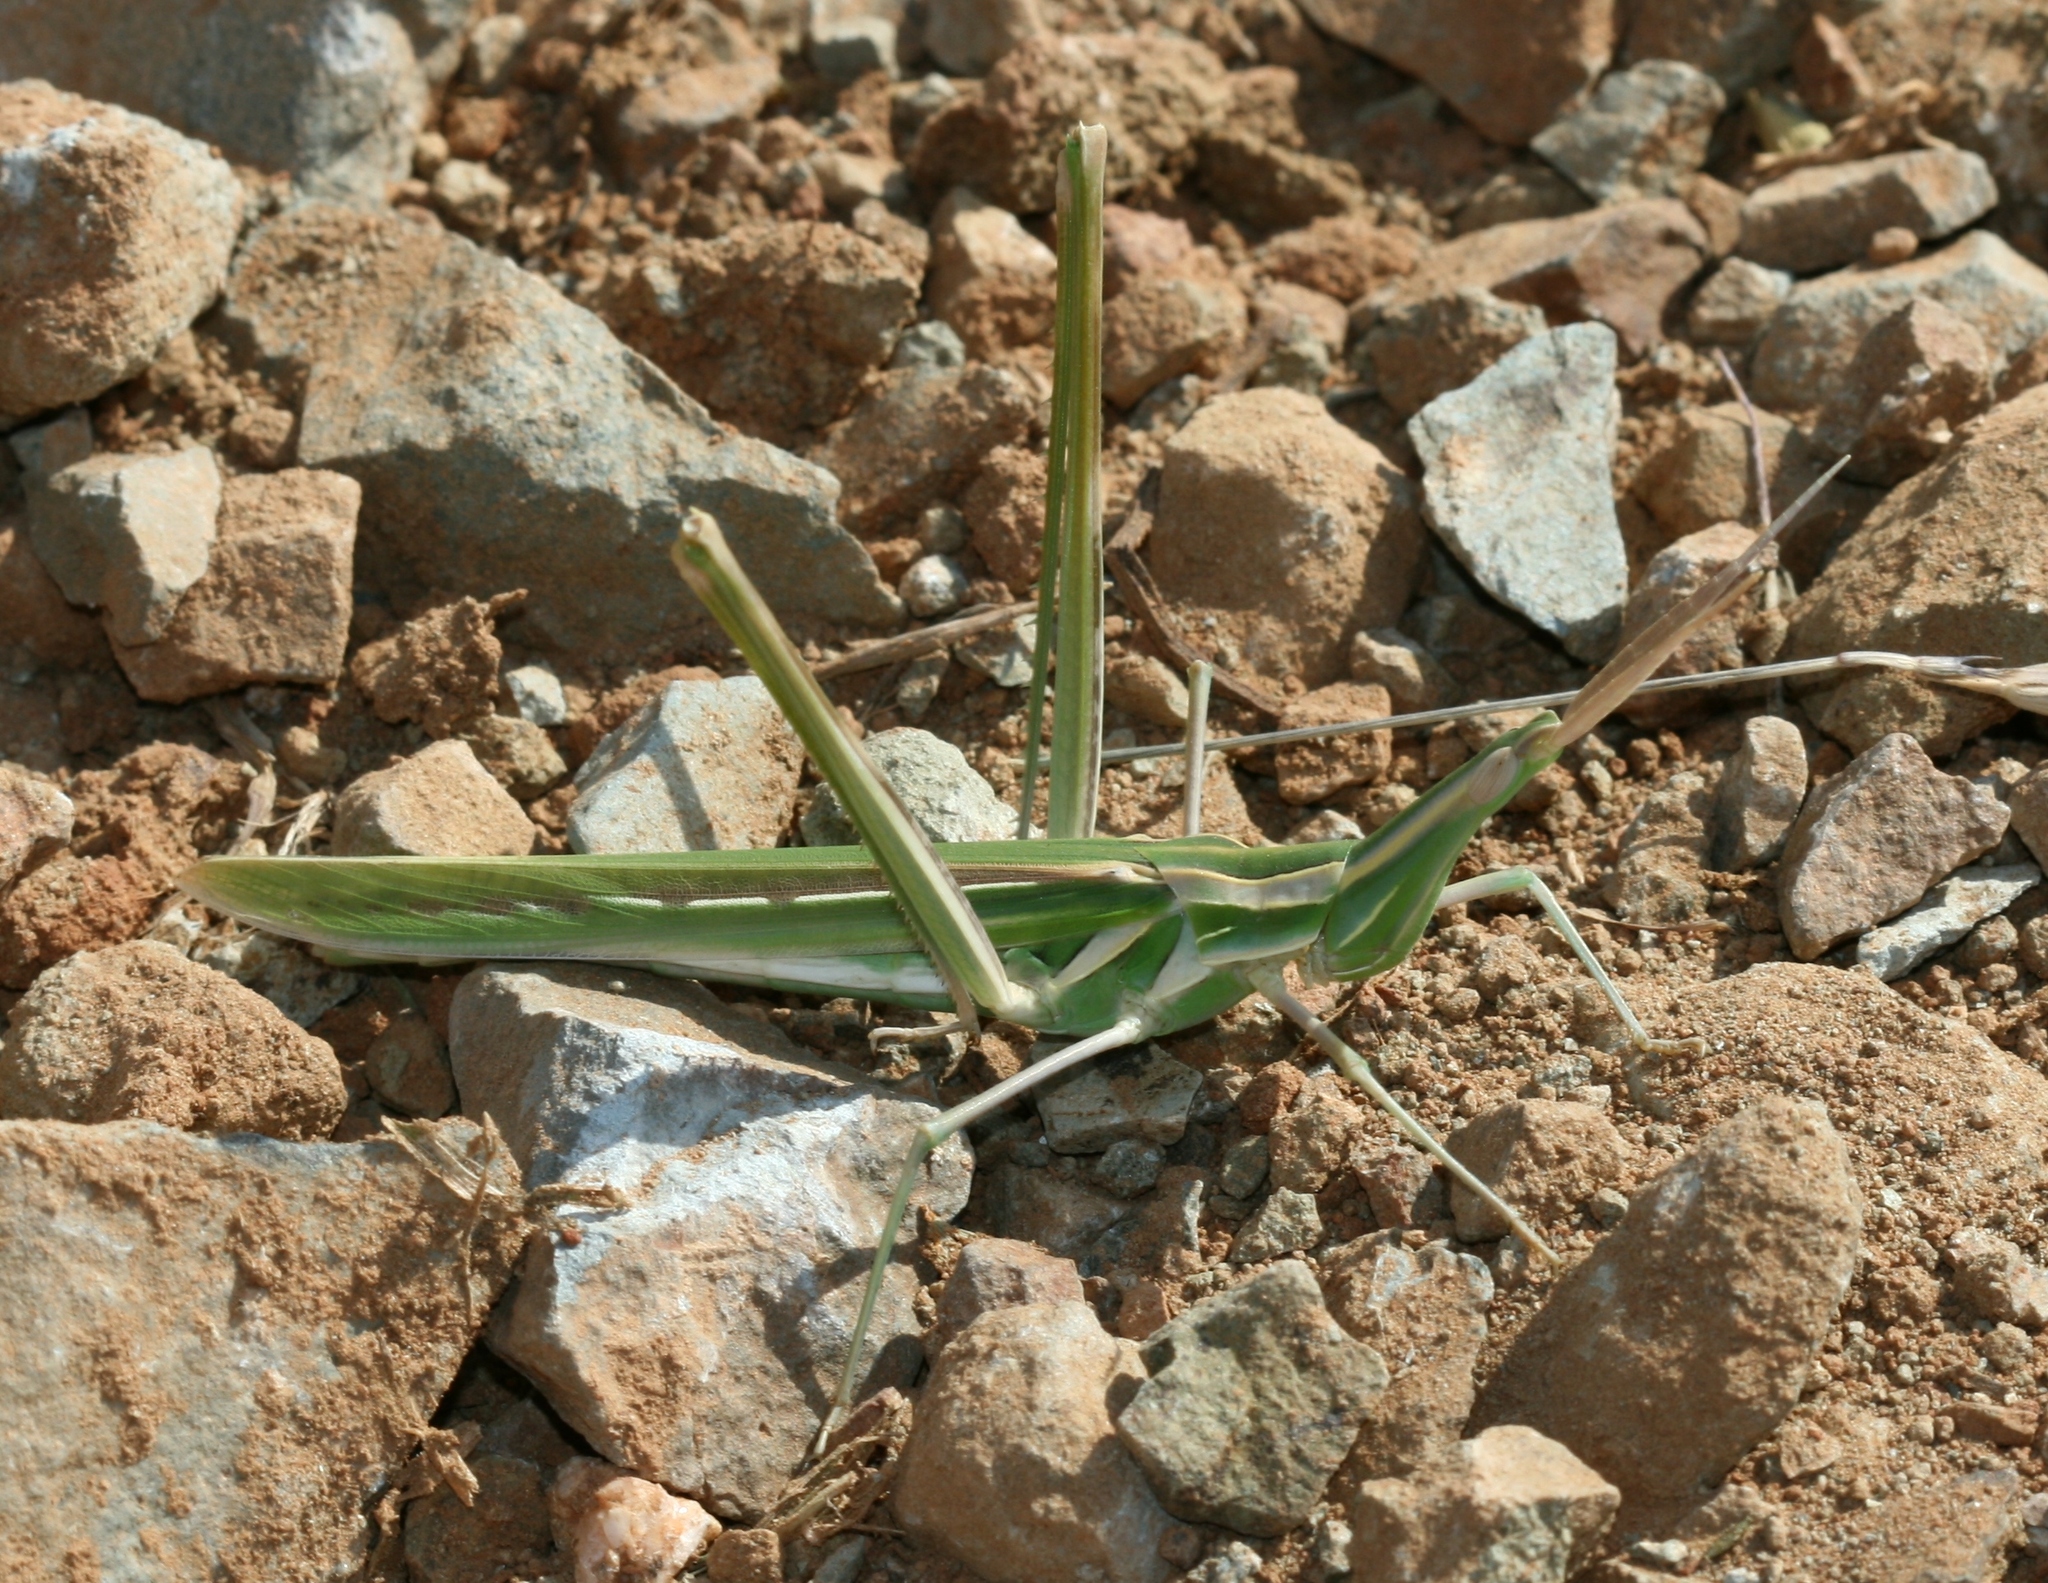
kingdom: Animalia
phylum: Arthropoda
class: Insecta
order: Orthoptera
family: Acrididae
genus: Truxalis
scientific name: Truxalis eximia
